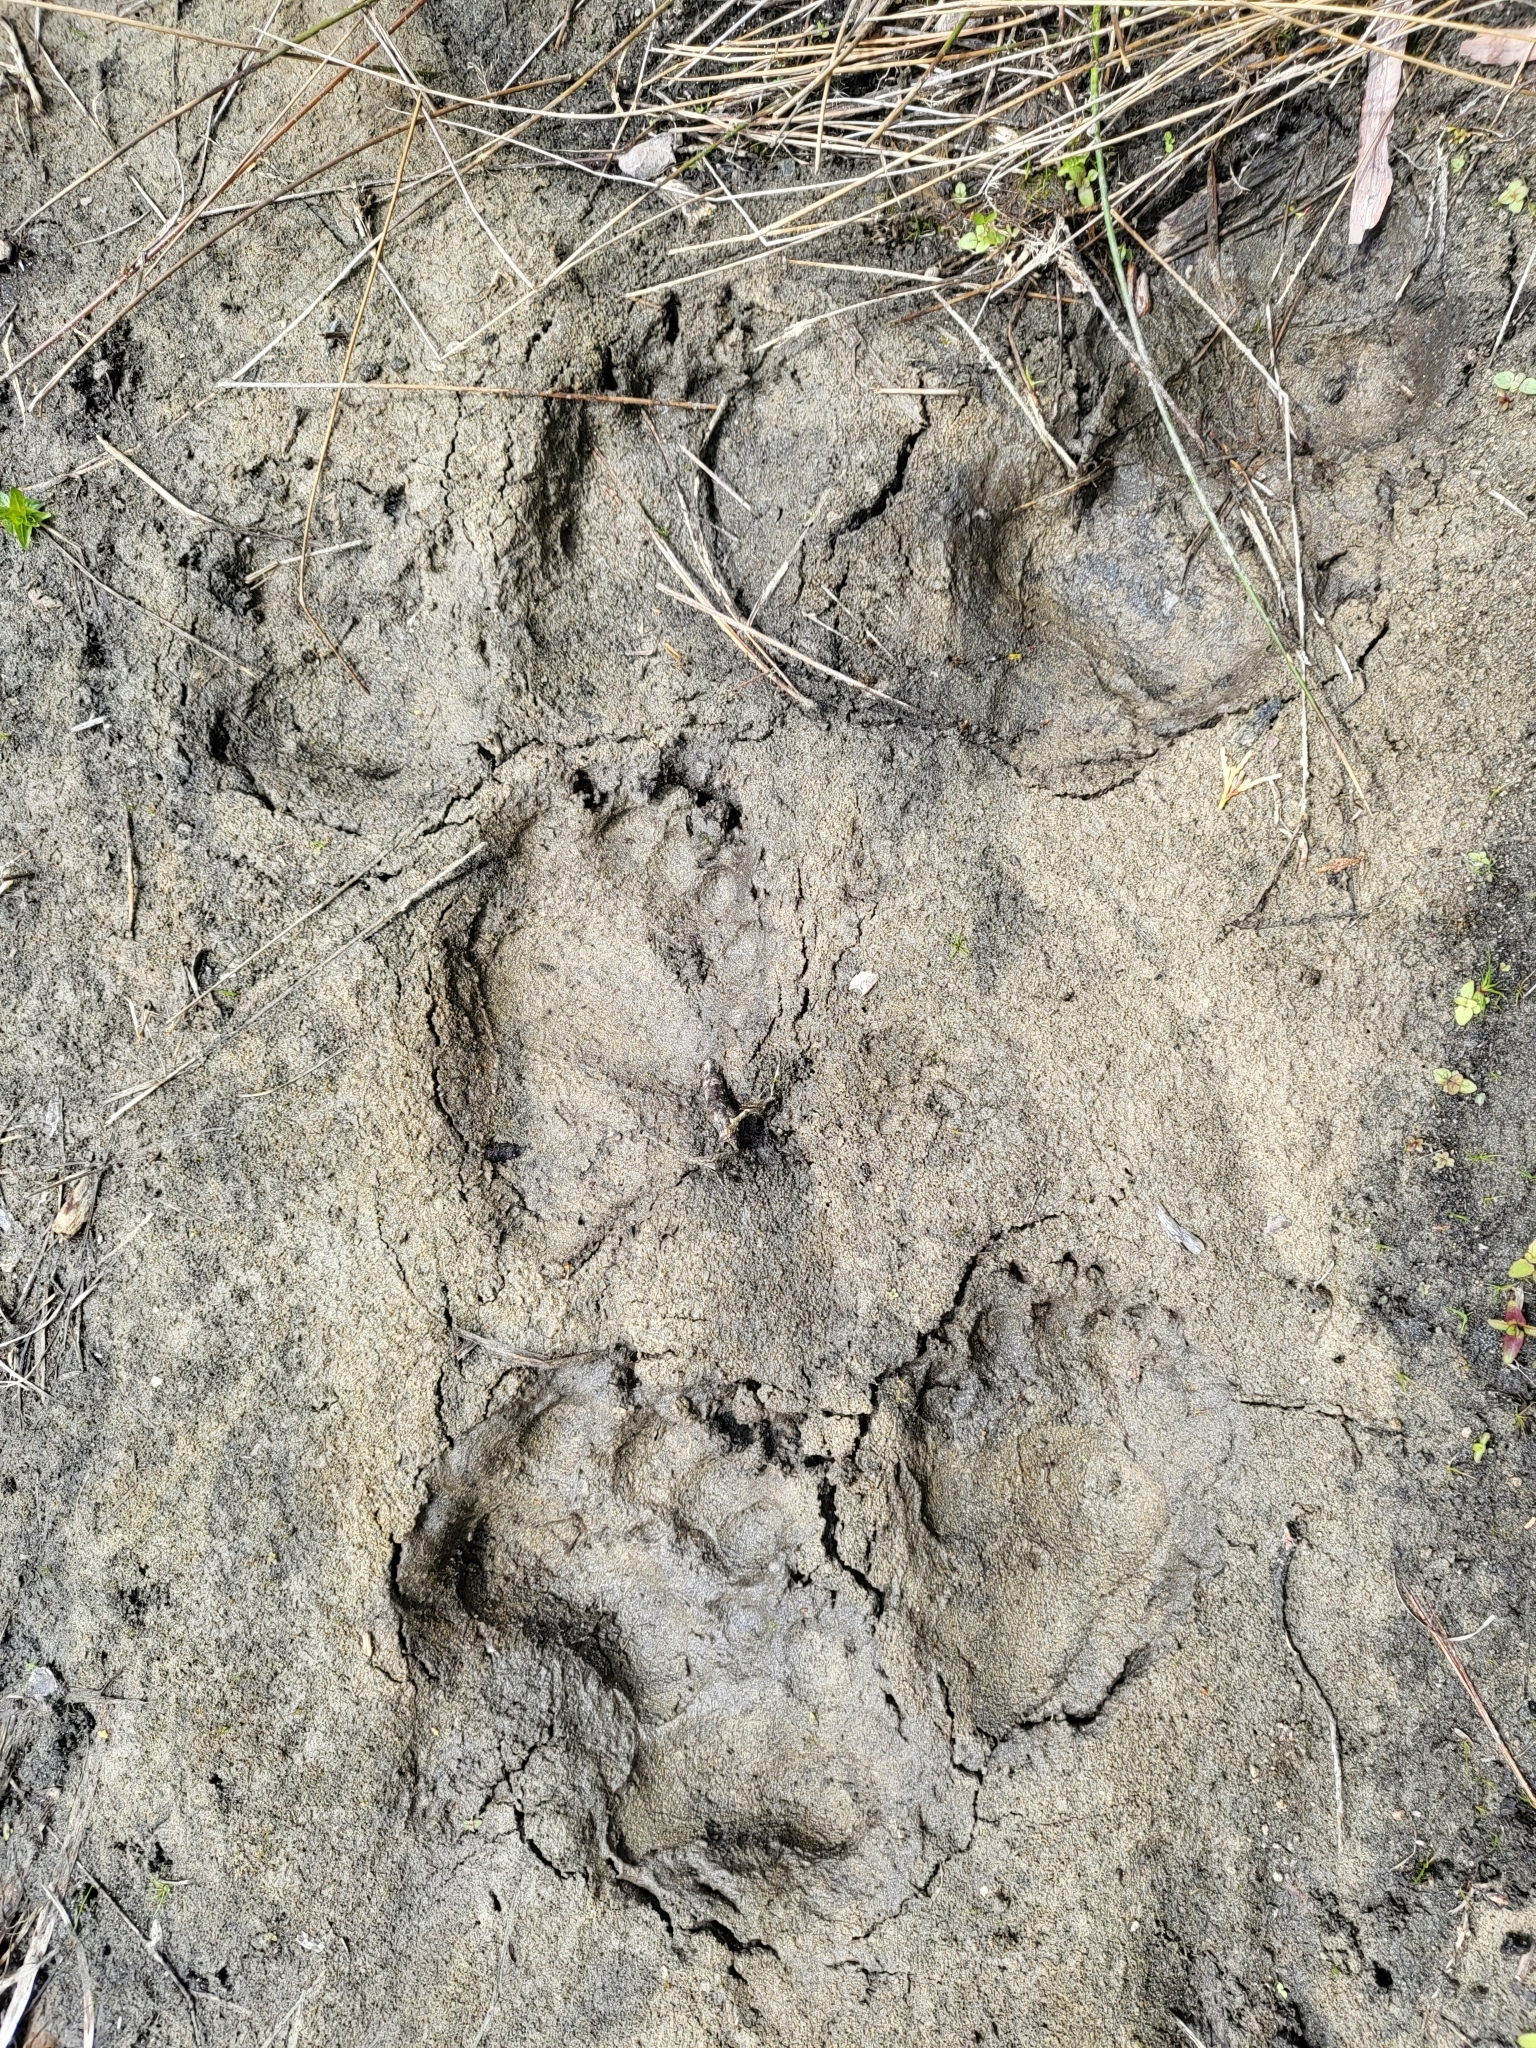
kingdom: Animalia
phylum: Chordata
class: Mammalia
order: Carnivora
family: Ursidae
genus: Ursus
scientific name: Ursus americanus
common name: American black bear
